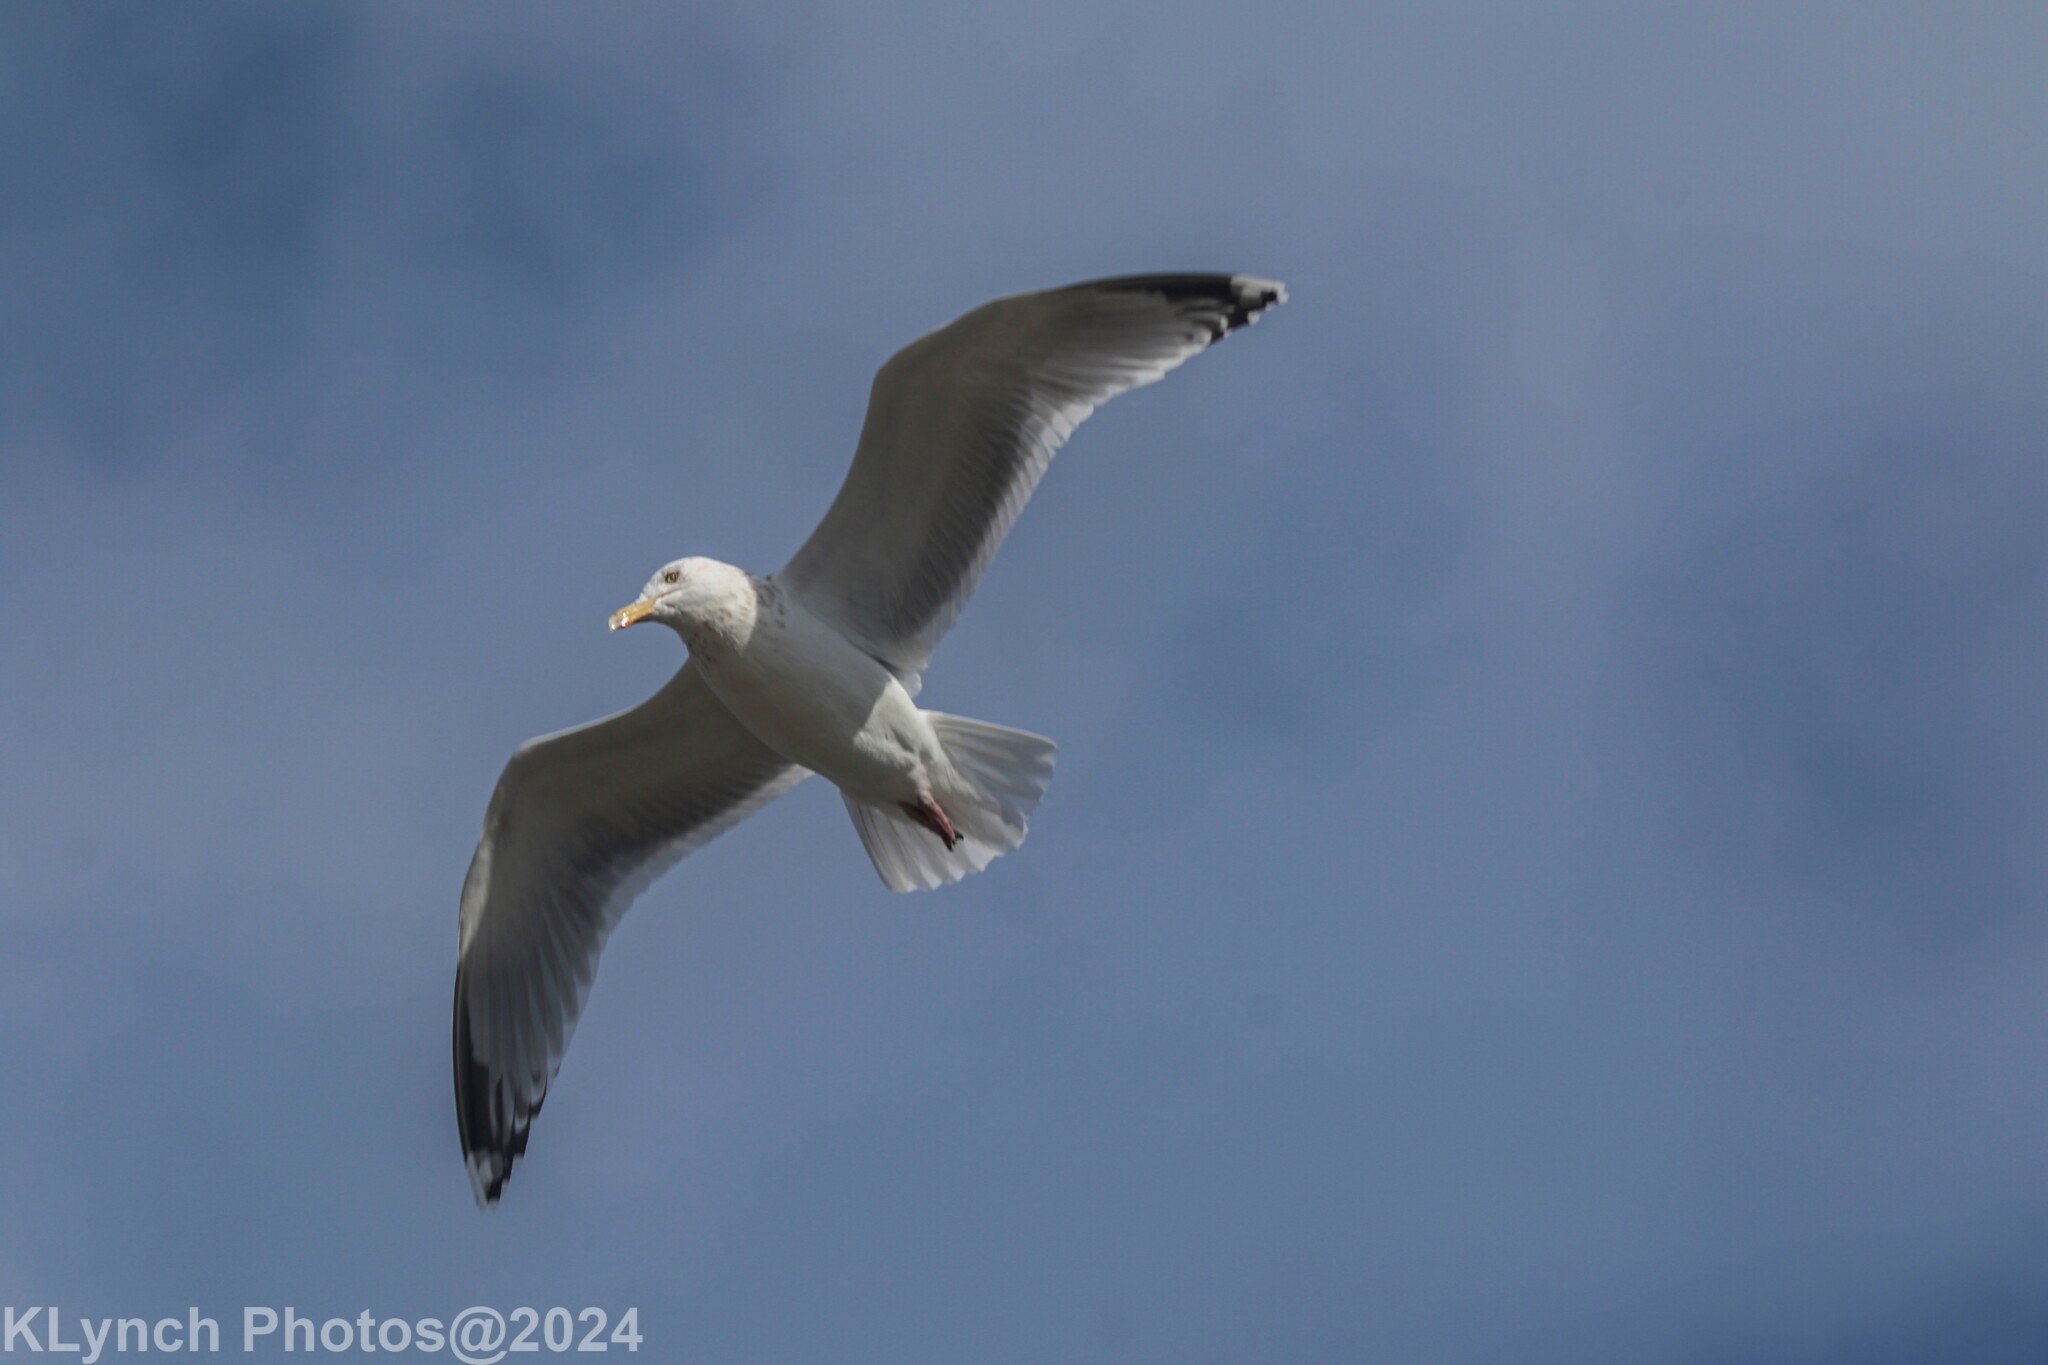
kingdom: Animalia
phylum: Chordata
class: Aves
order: Charadriiformes
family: Laridae
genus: Larus
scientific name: Larus argentatus
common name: Herring gull
